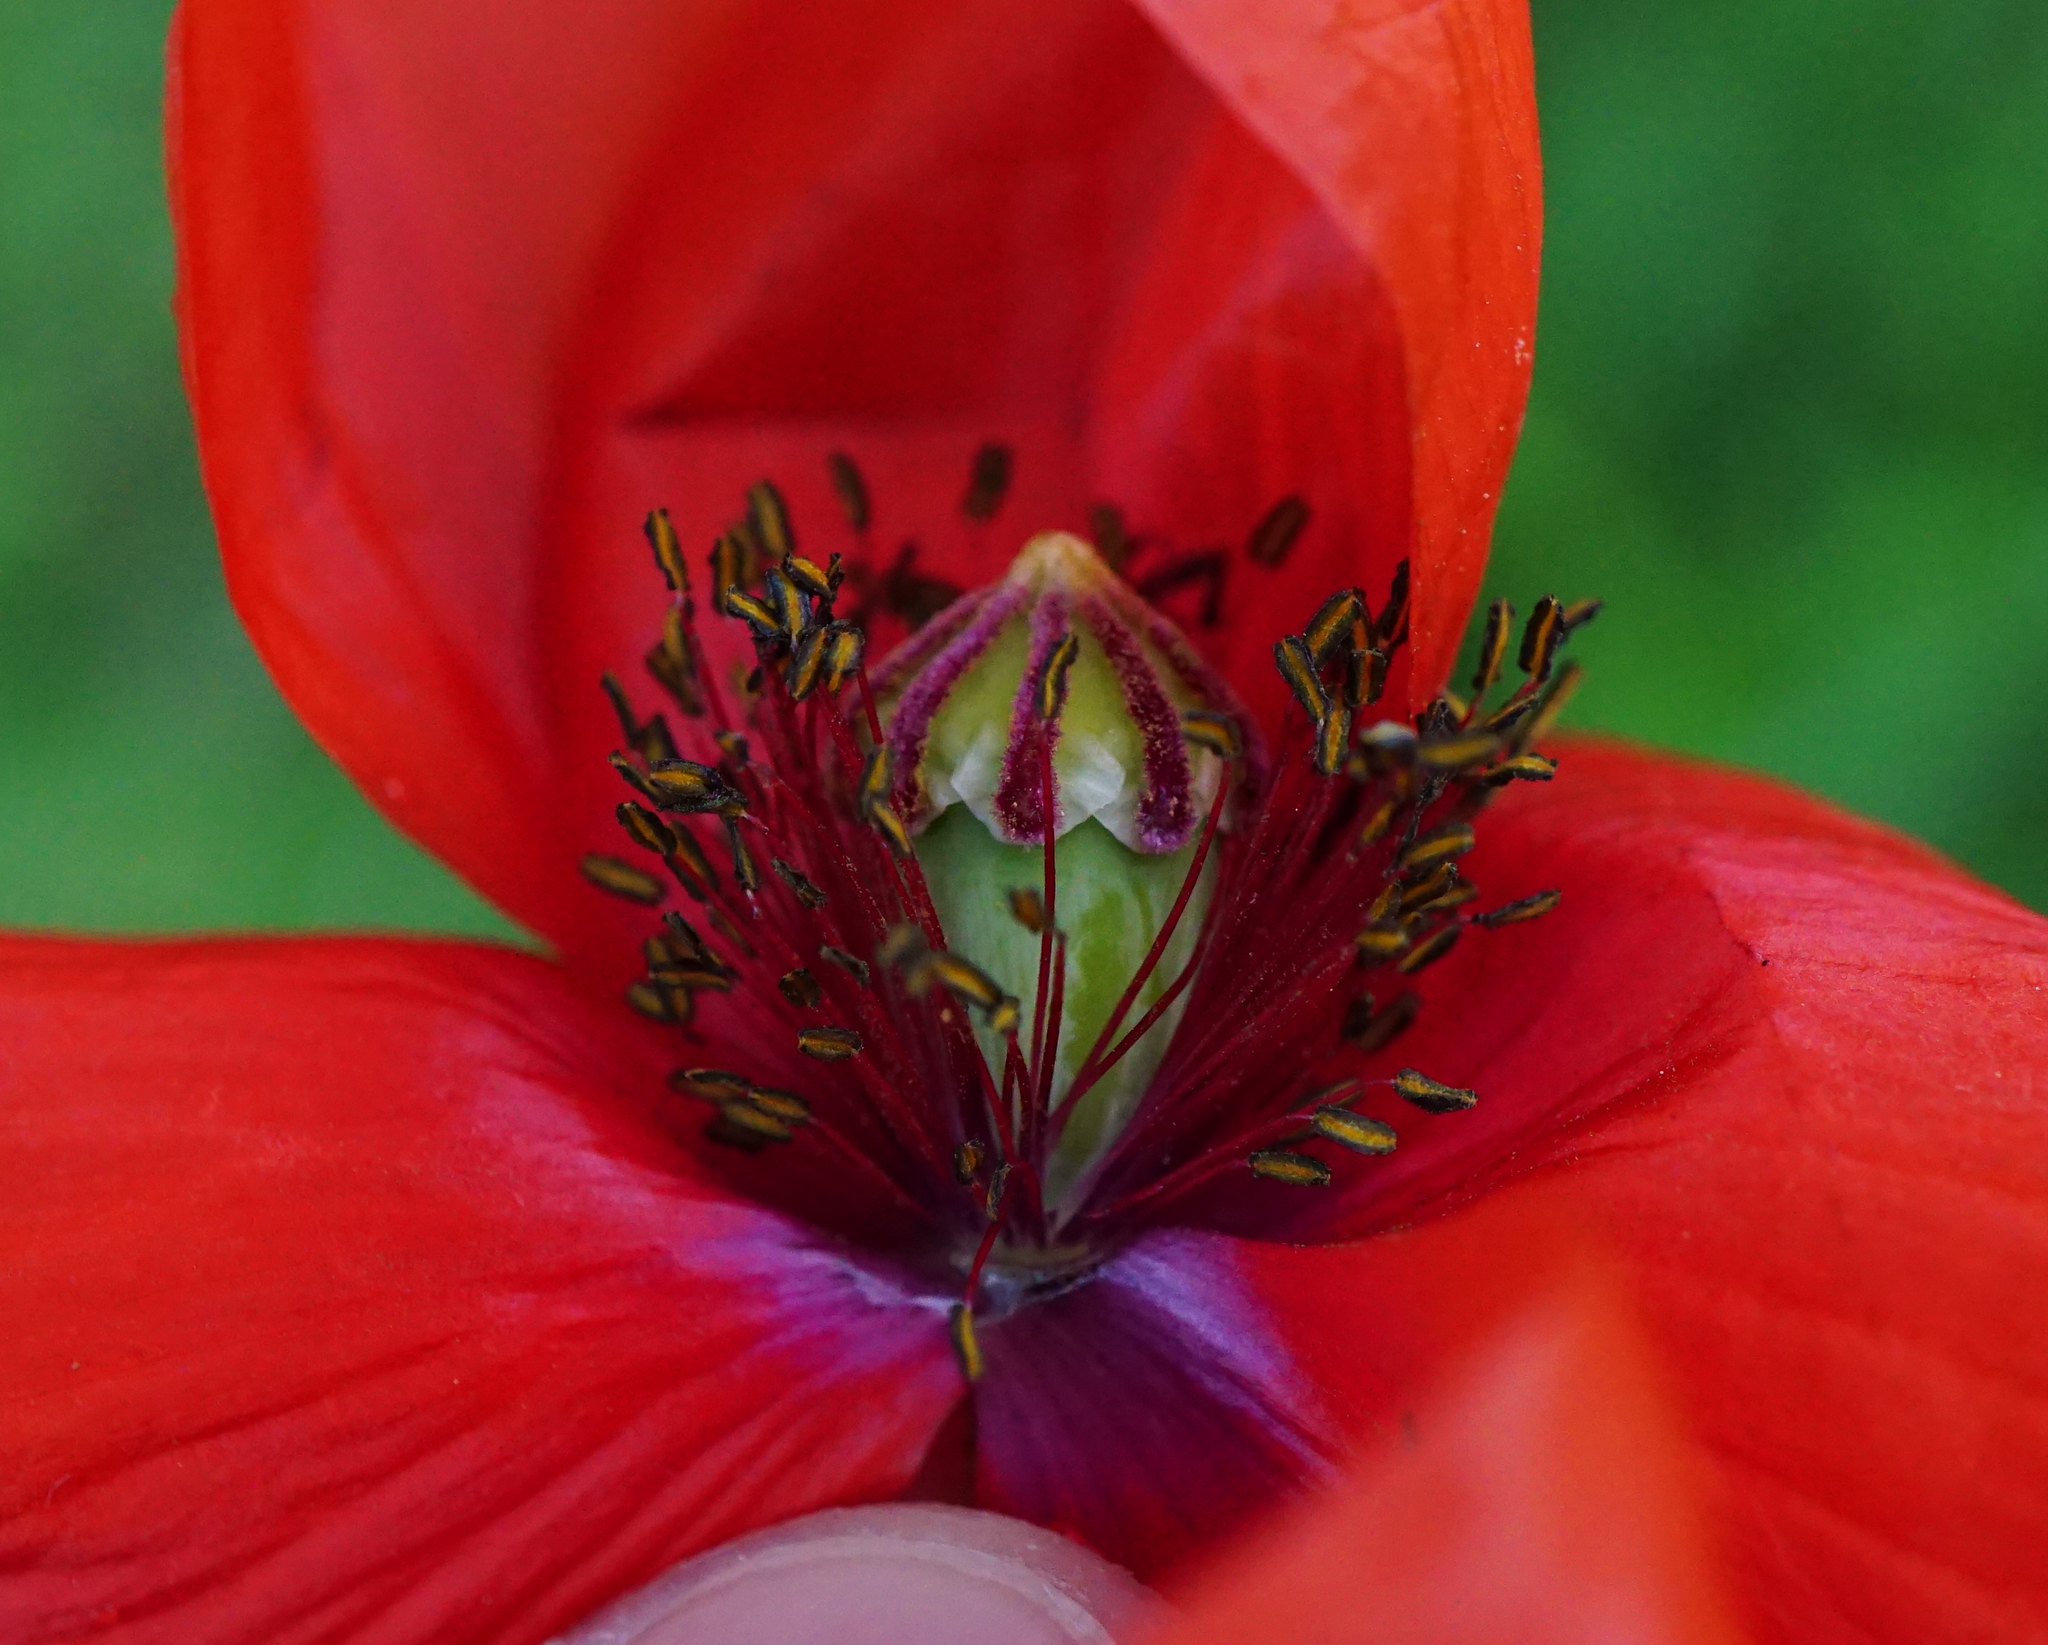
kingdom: Plantae
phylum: Tracheophyta
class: Magnoliopsida
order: Ranunculales
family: Papaveraceae
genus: Papaver
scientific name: Papaver dubium
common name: Long-headed poppy
